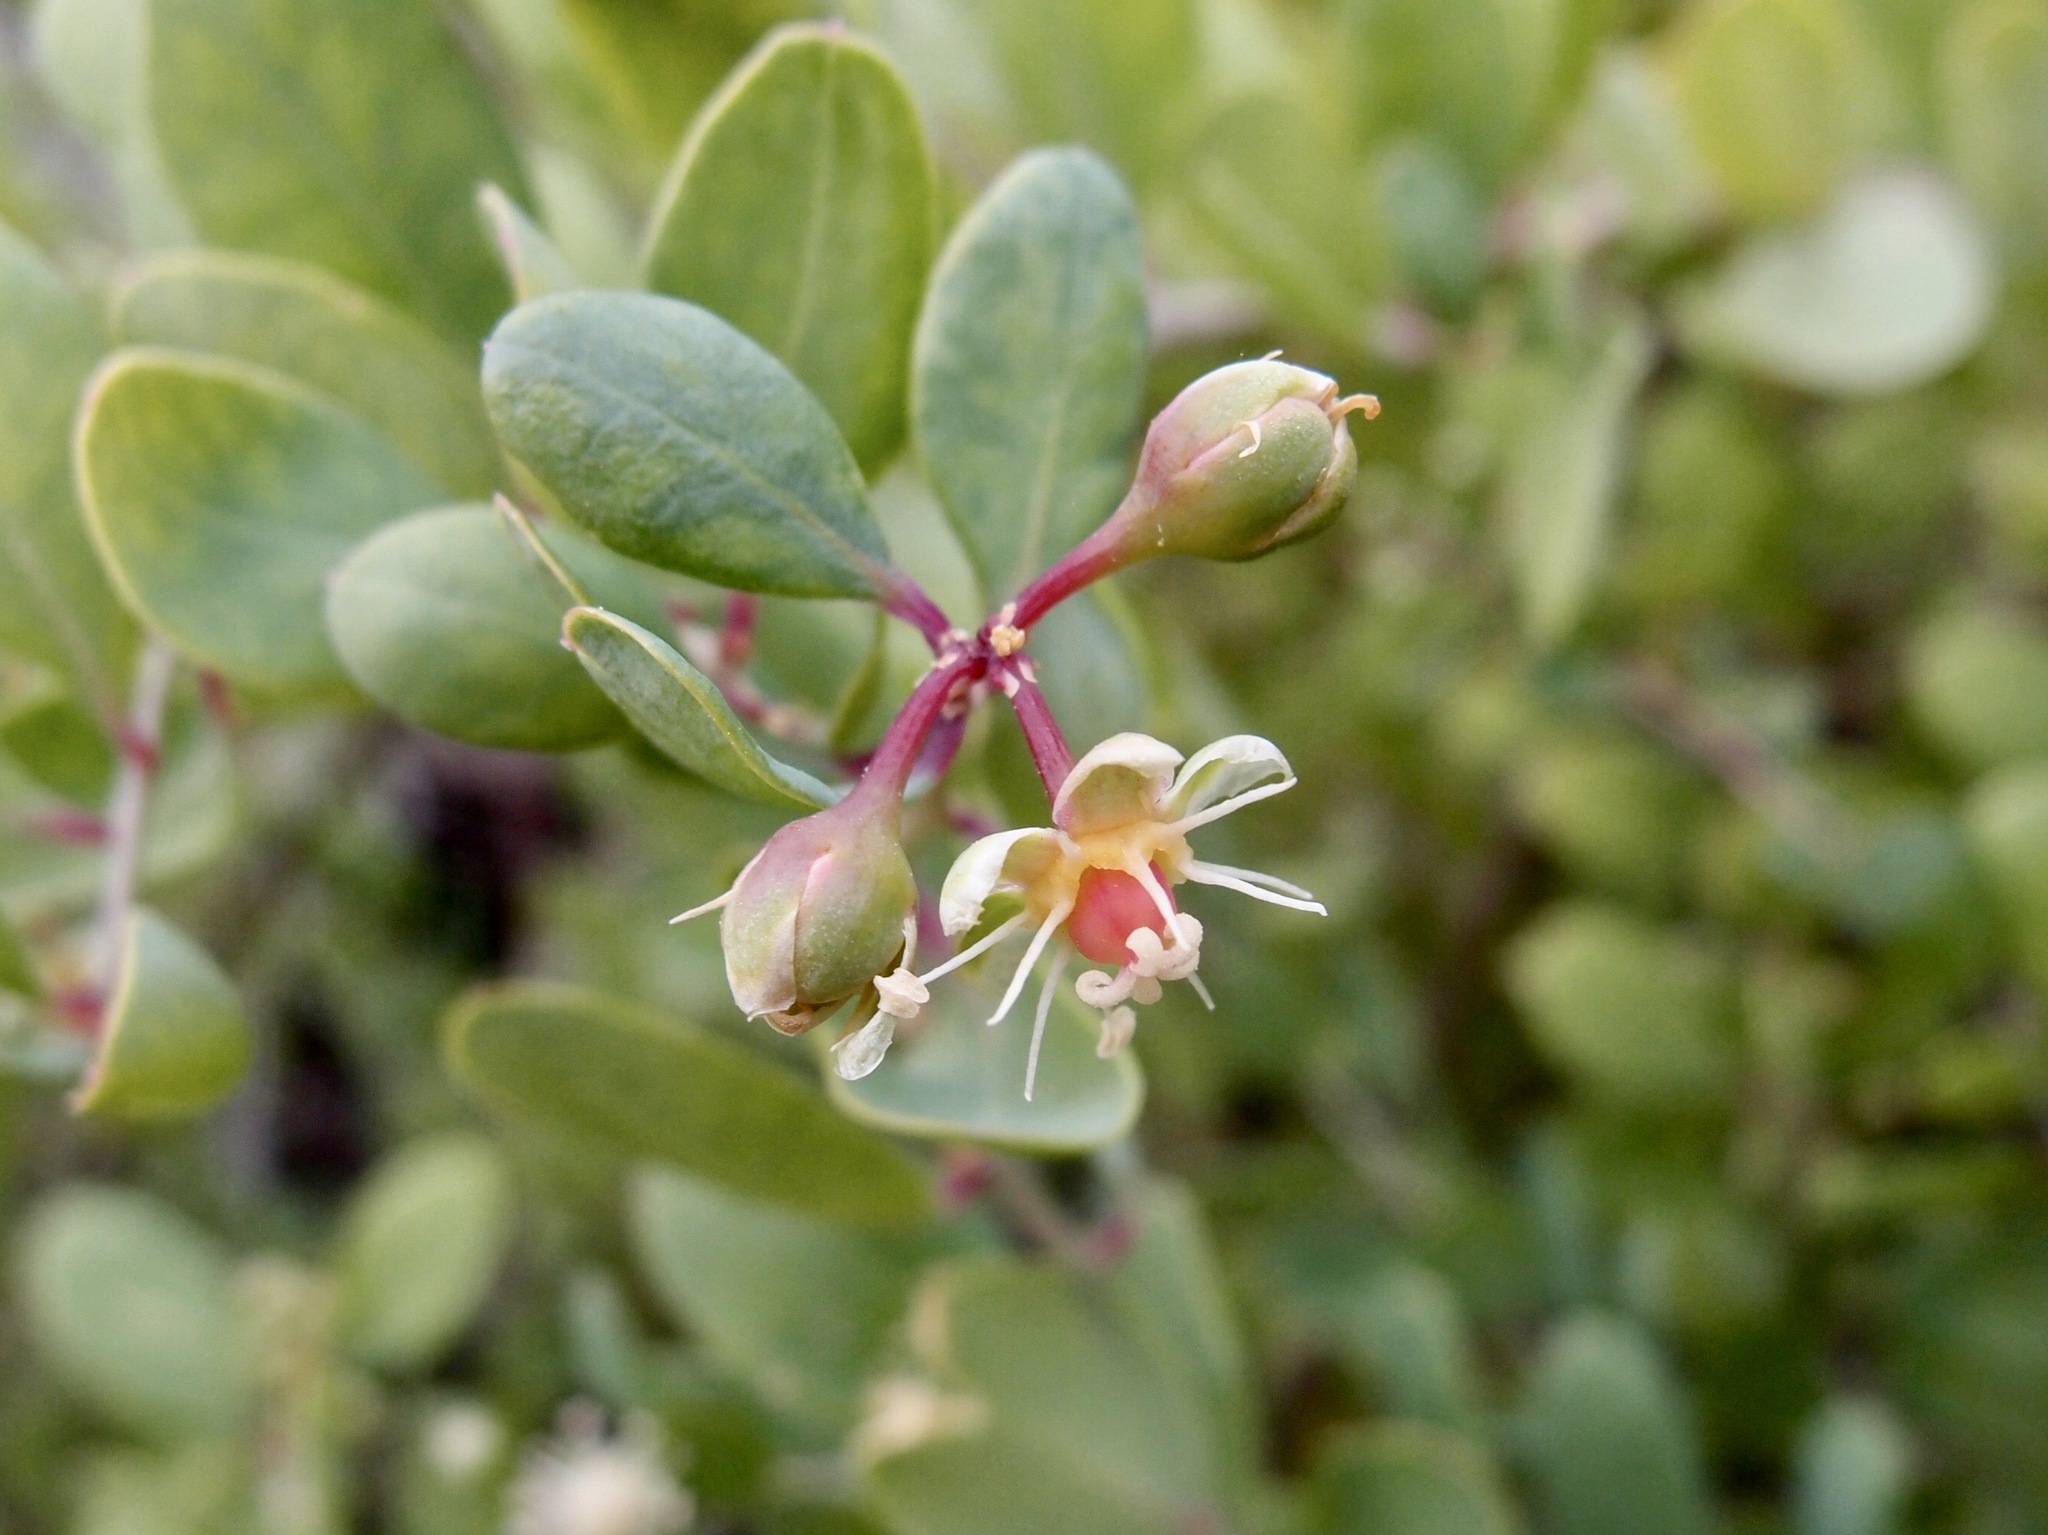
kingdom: Plantae
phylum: Tracheophyta
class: Magnoliopsida
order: Caryophyllales
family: Stegnospermataceae
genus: Stegnosperma
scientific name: Stegnosperma halimifolium
